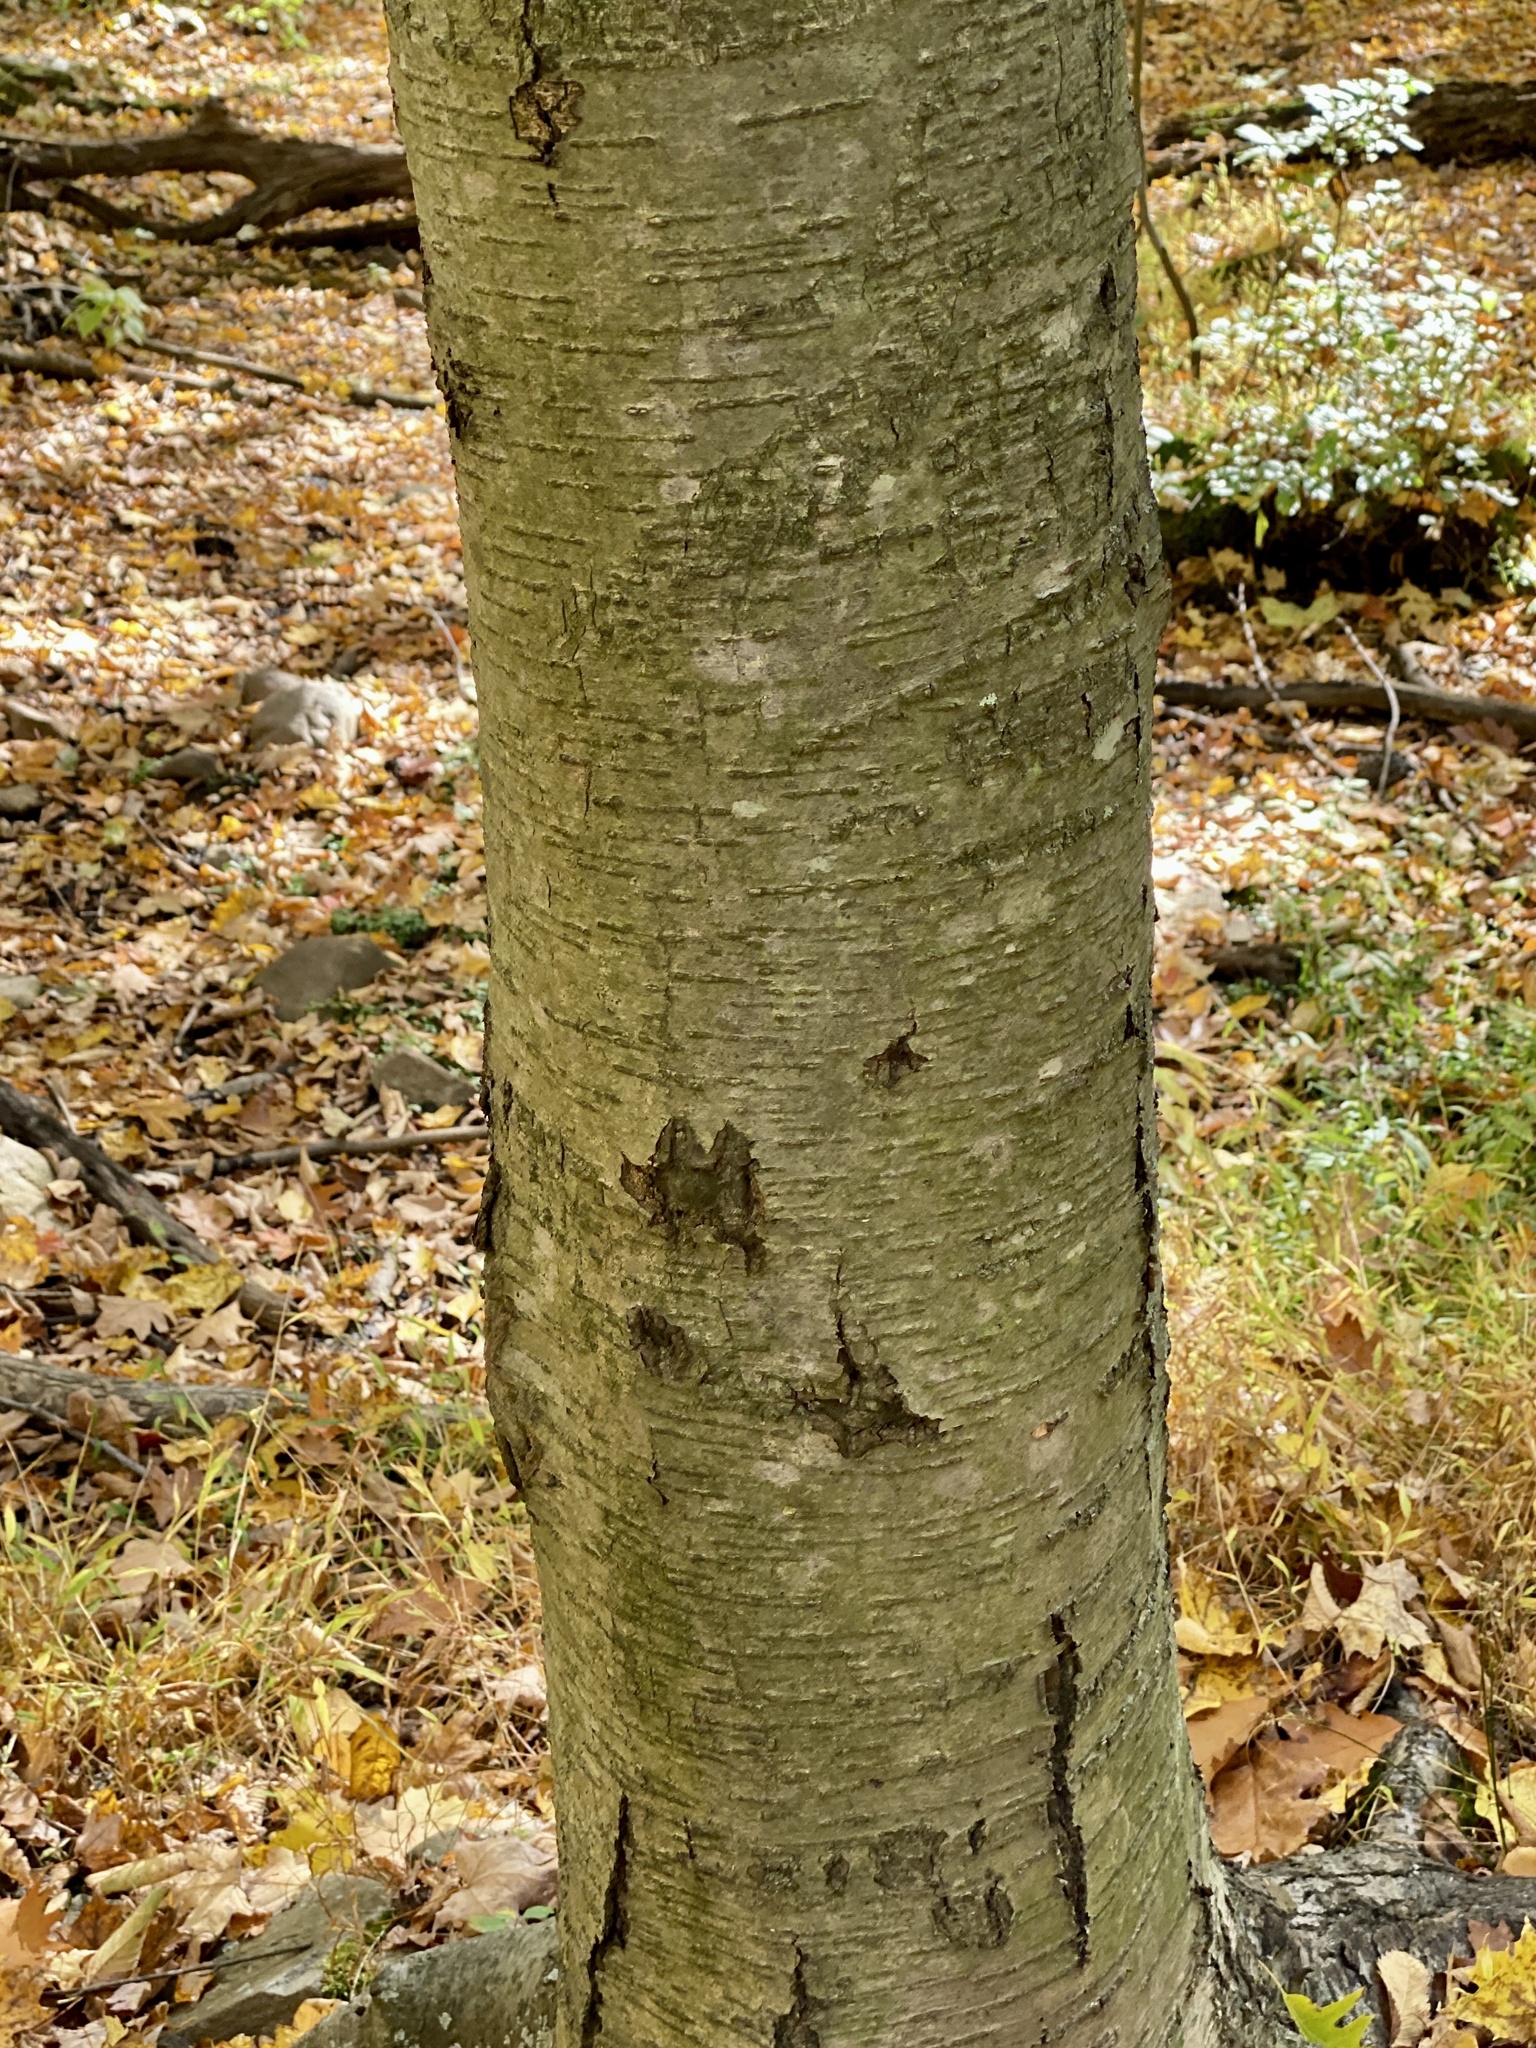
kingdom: Plantae
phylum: Tracheophyta
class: Magnoliopsida
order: Fagales
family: Betulaceae
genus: Betula
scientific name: Betula lenta
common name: Black birch
